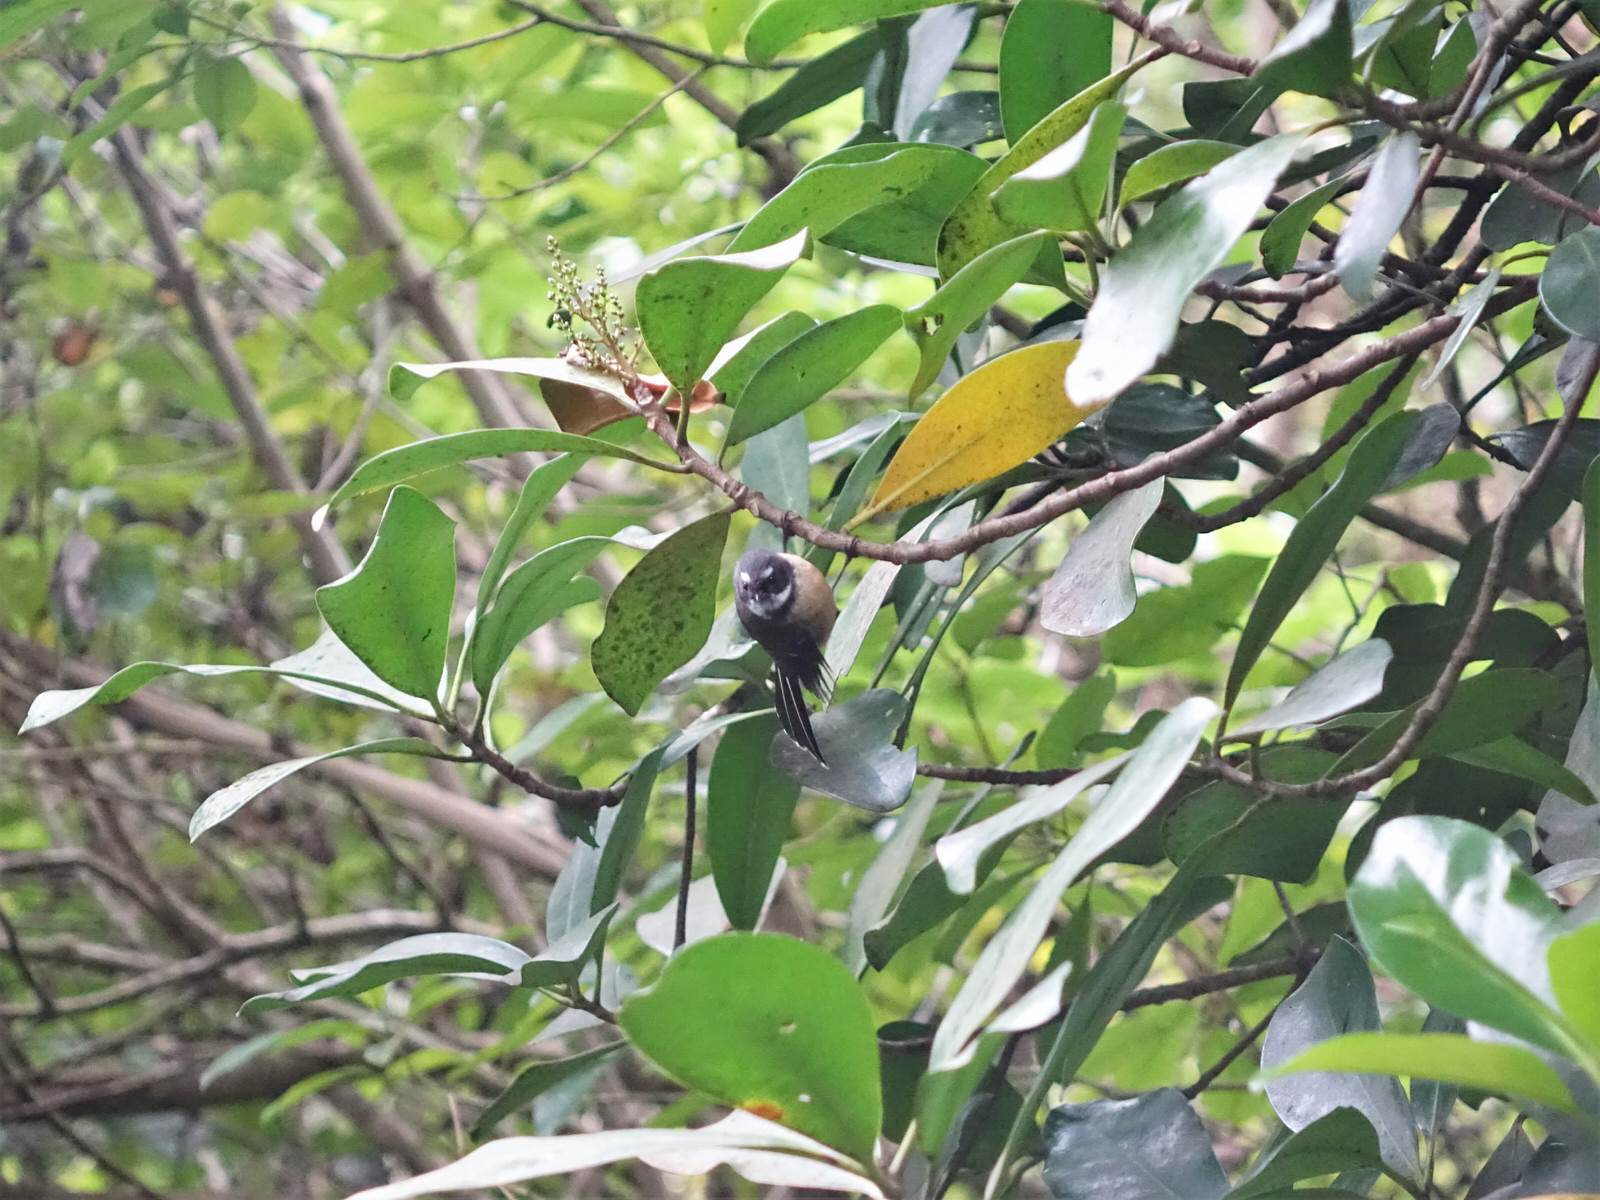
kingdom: Animalia
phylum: Chordata
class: Aves
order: Passeriformes
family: Rhipiduridae
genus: Rhipidura
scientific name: Rhipidura fuliginosa
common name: New zealand fantail
